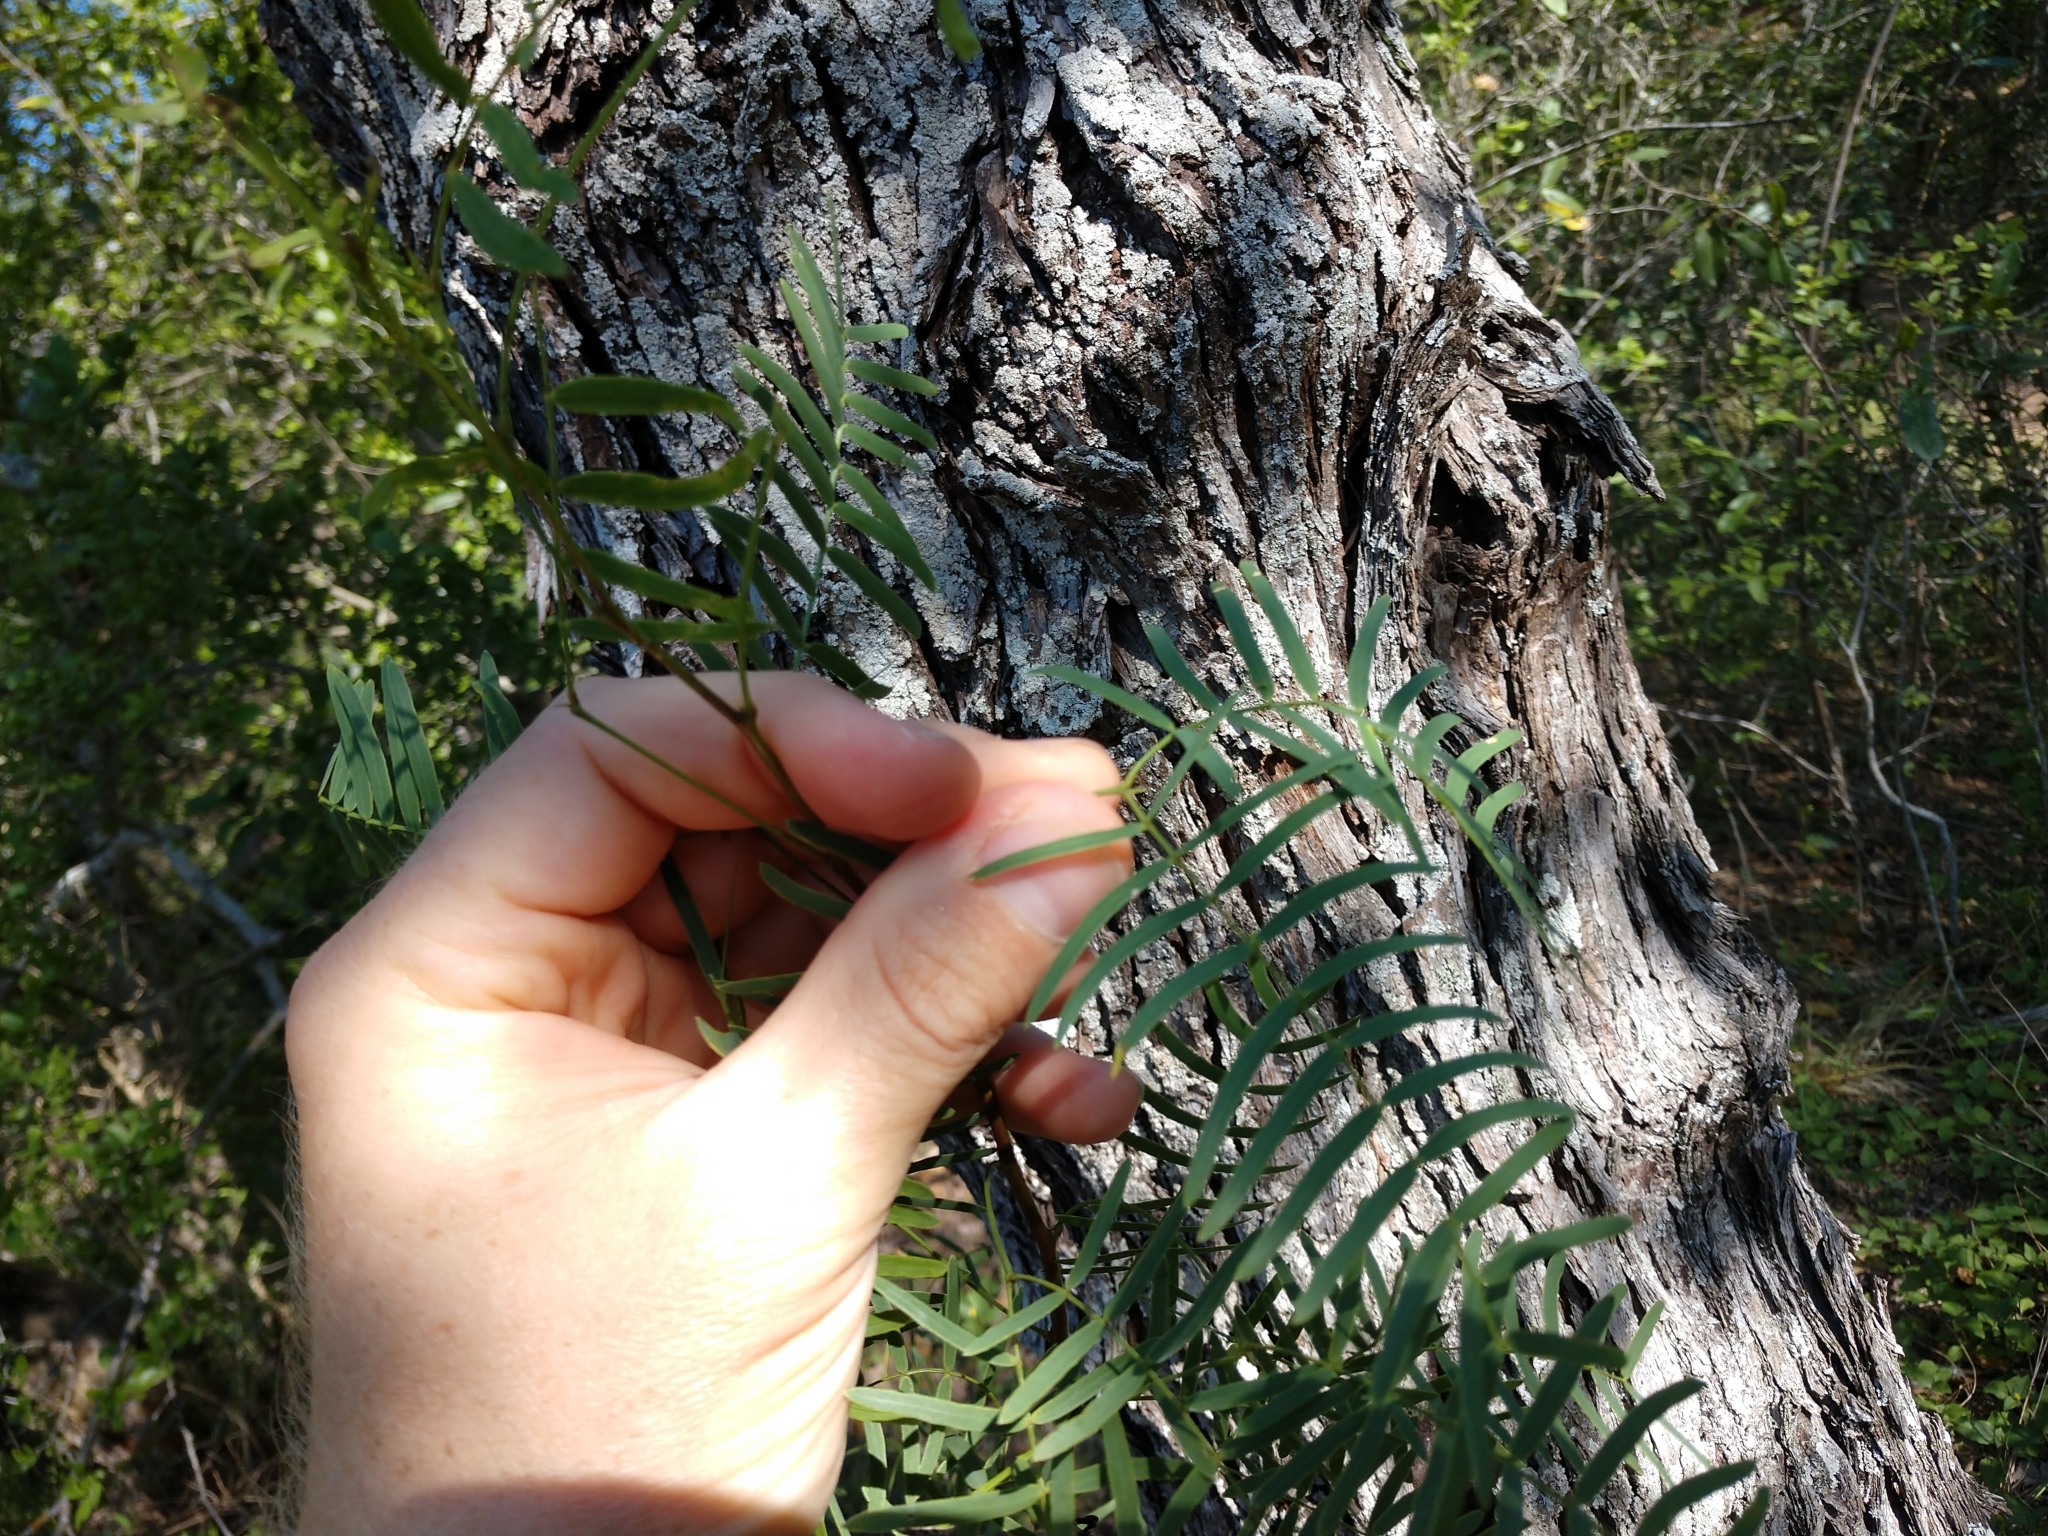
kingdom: Plantae
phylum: Tracheophyta
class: Magnoliopsida
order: Fabales
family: Fabaceae
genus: Prosopis
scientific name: Prosopis glandulosa
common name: Honey mesquite
